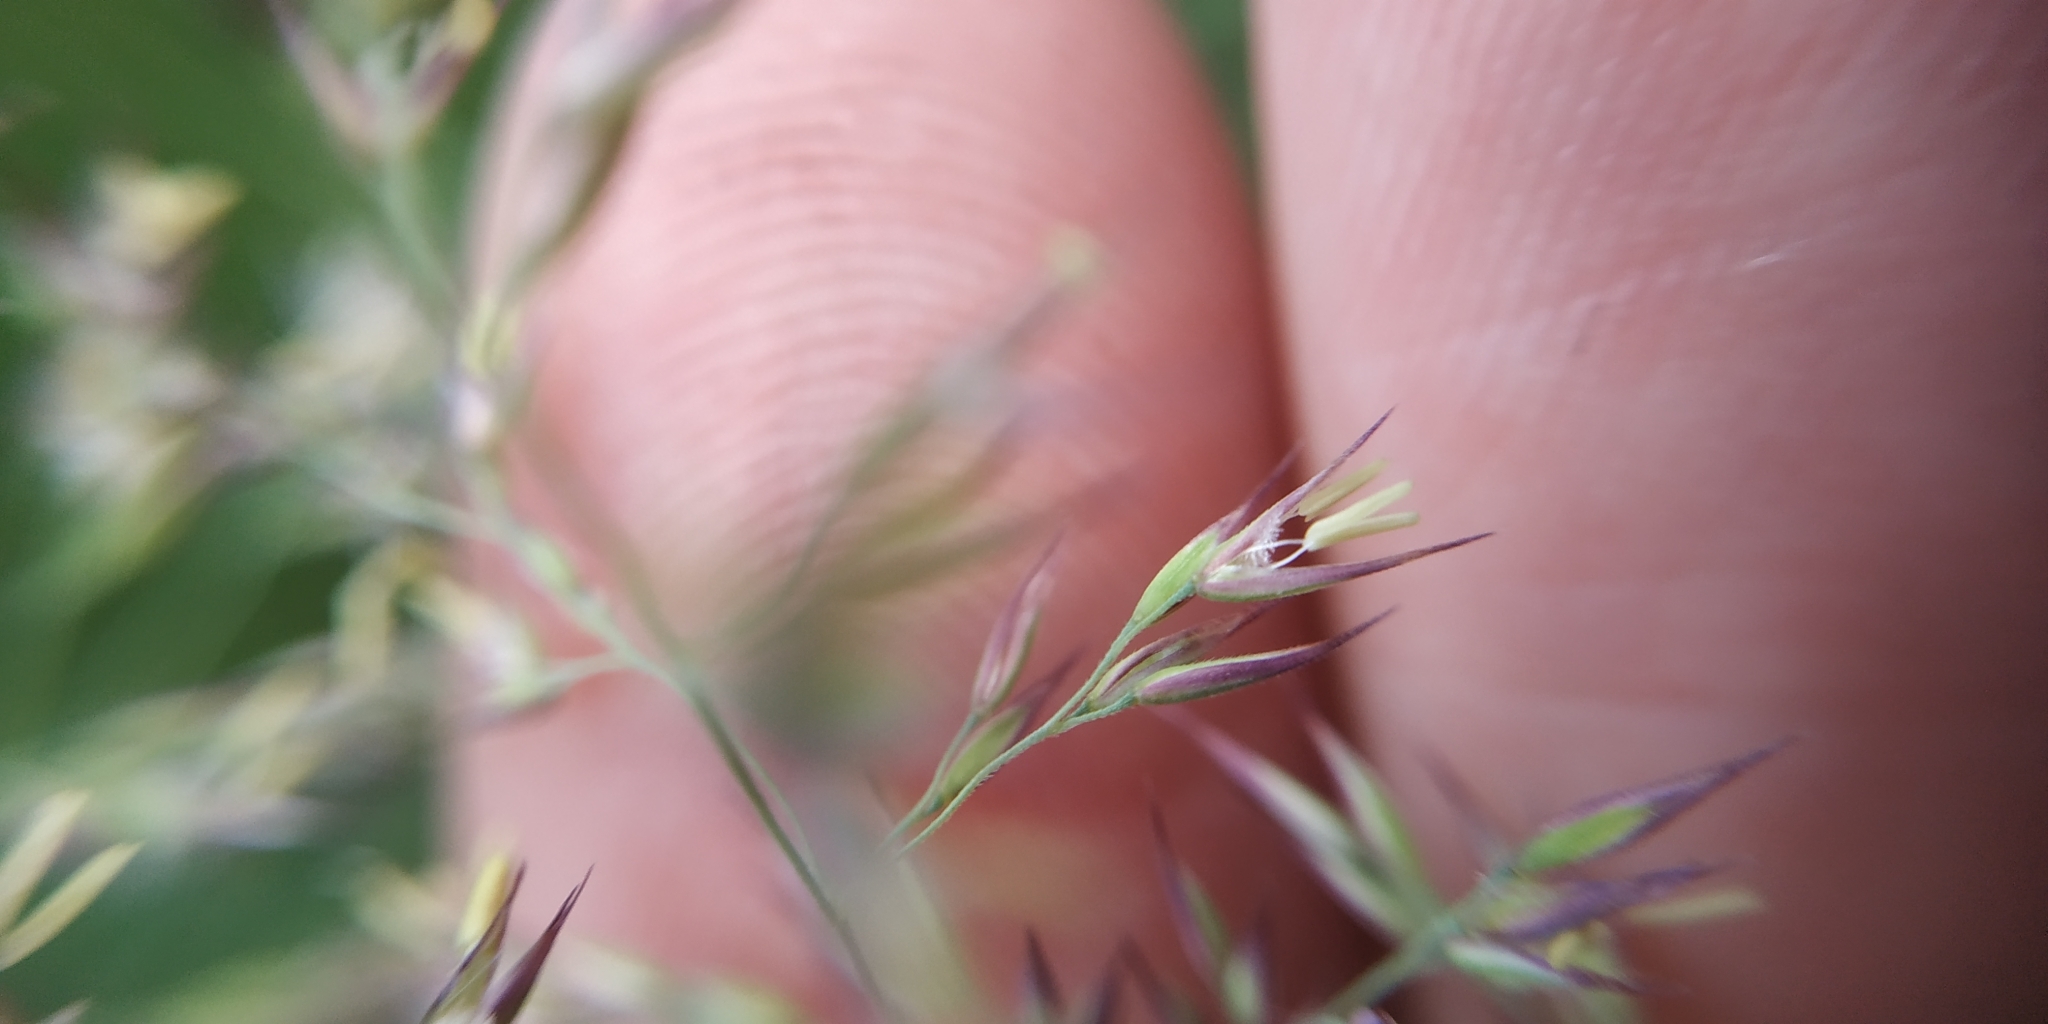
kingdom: Plantae
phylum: Tracheophyta
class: Liliopsida
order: Poales
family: Poaceae
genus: Calamagrostis
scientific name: Calamagrostis purpurea
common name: Scandinavian small-reed
